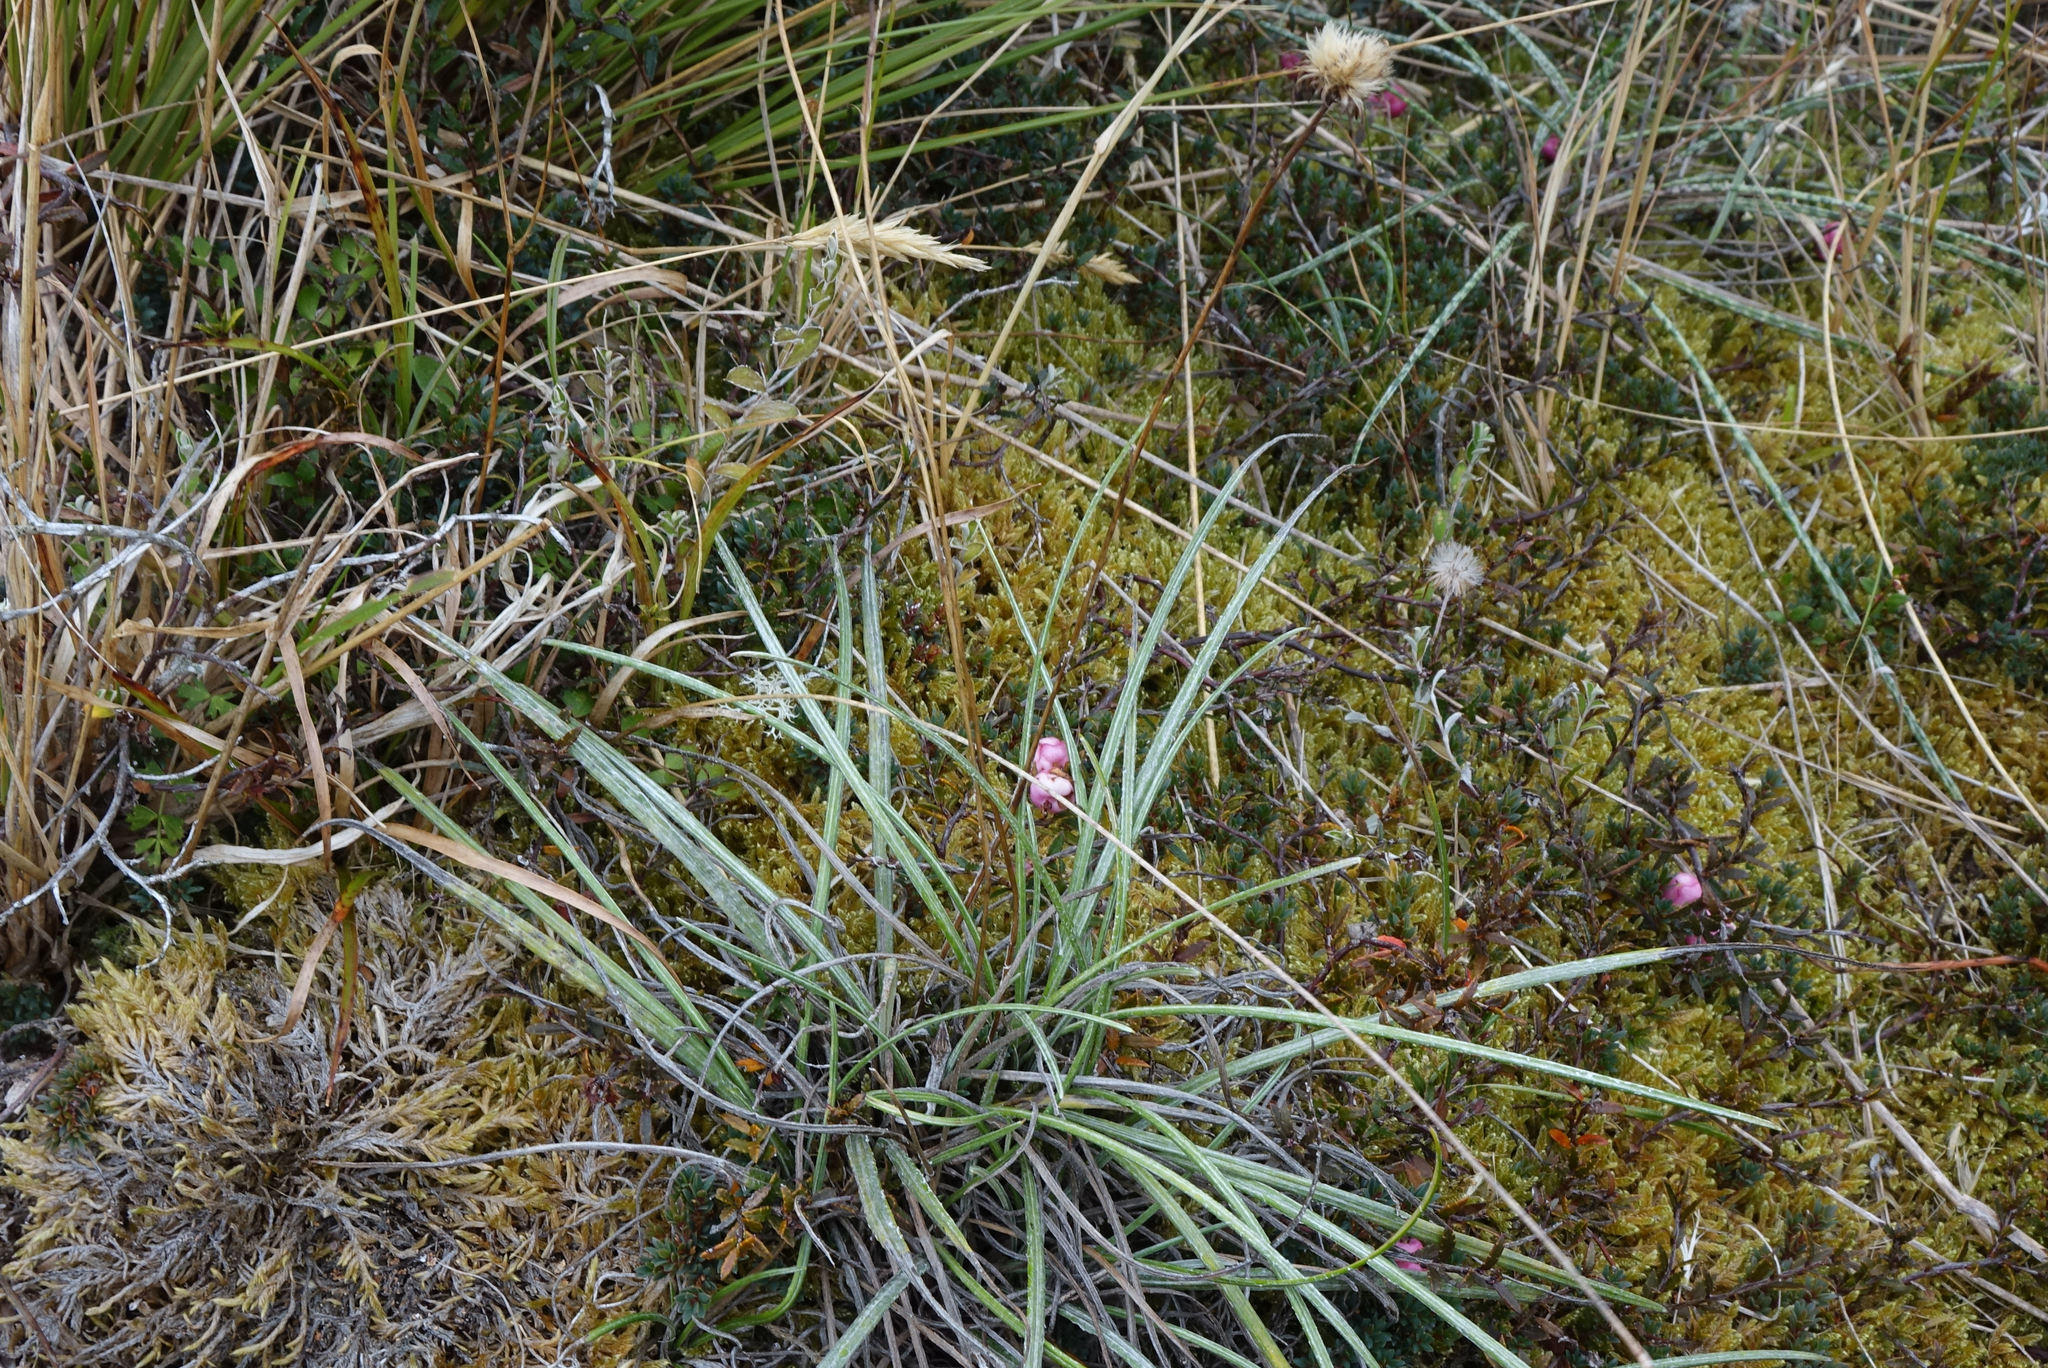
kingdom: Plantae
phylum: Tracheophyta
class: Magnoliopsida
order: Asterales
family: Asteraceae
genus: Celmisia
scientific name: Celmisia gracilenta
